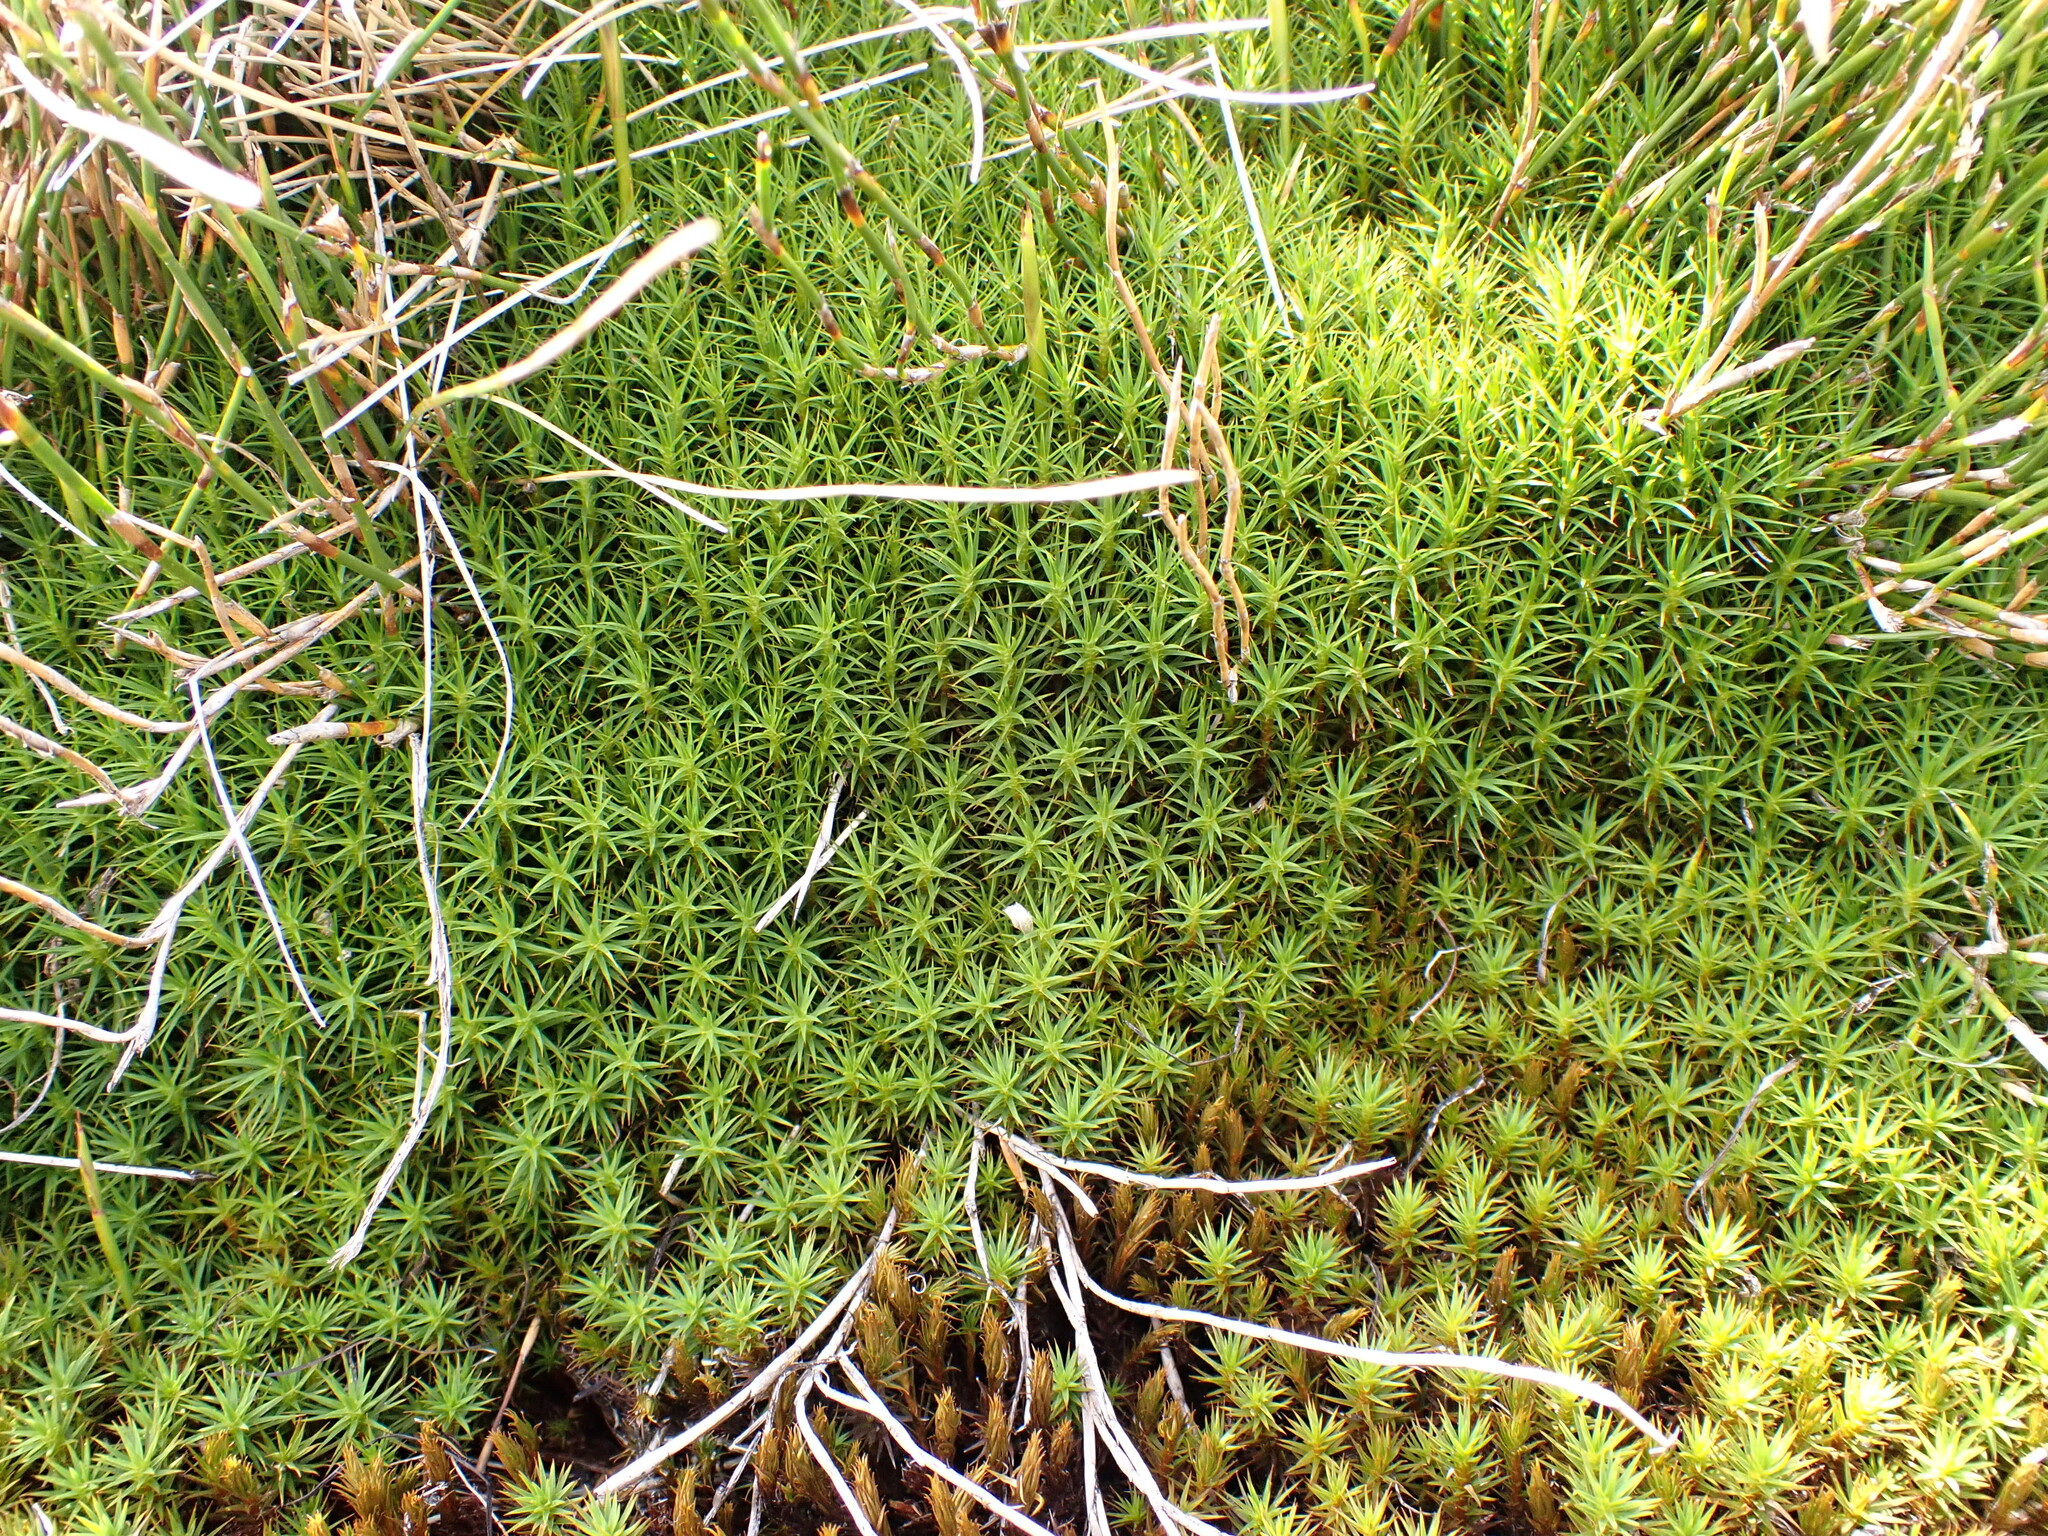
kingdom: Plantae
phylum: Bryophyta
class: Polytrichopsida
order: Polytrichales
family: Polytrichaceae
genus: Polytrichum
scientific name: Polytrichum juniperinum
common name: Juniper haircap moss
